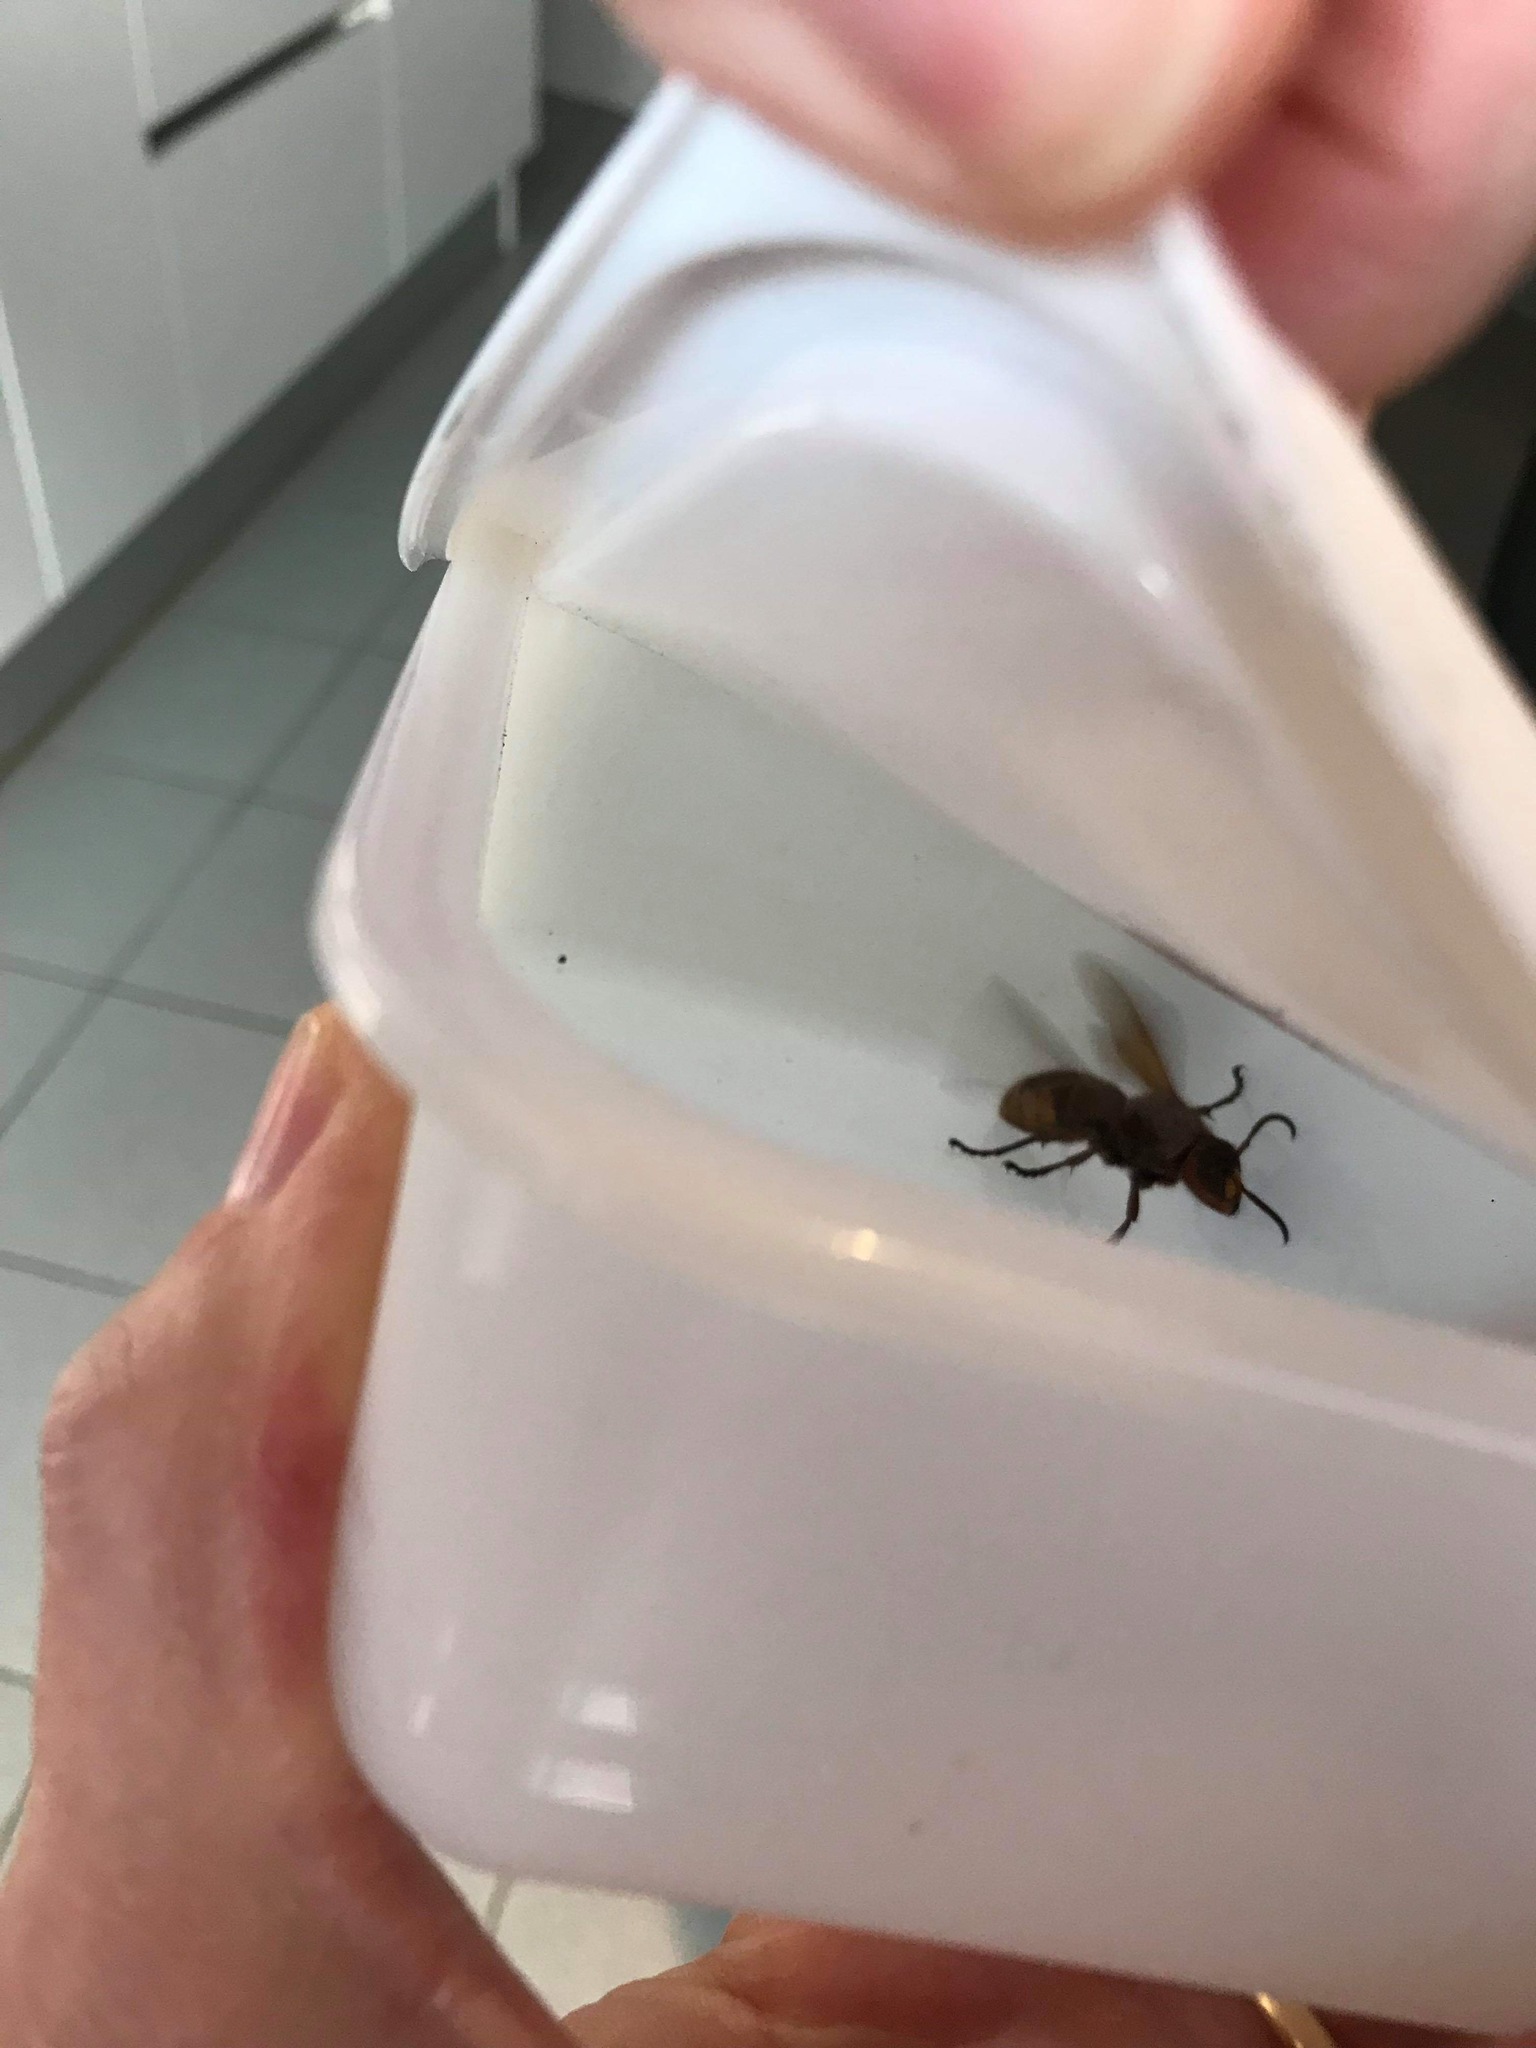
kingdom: Animalia
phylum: Arthropoda
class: Insecta
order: Hymenoptera
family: Vespidae
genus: Vespa
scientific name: Vespa crabro
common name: Hornet
